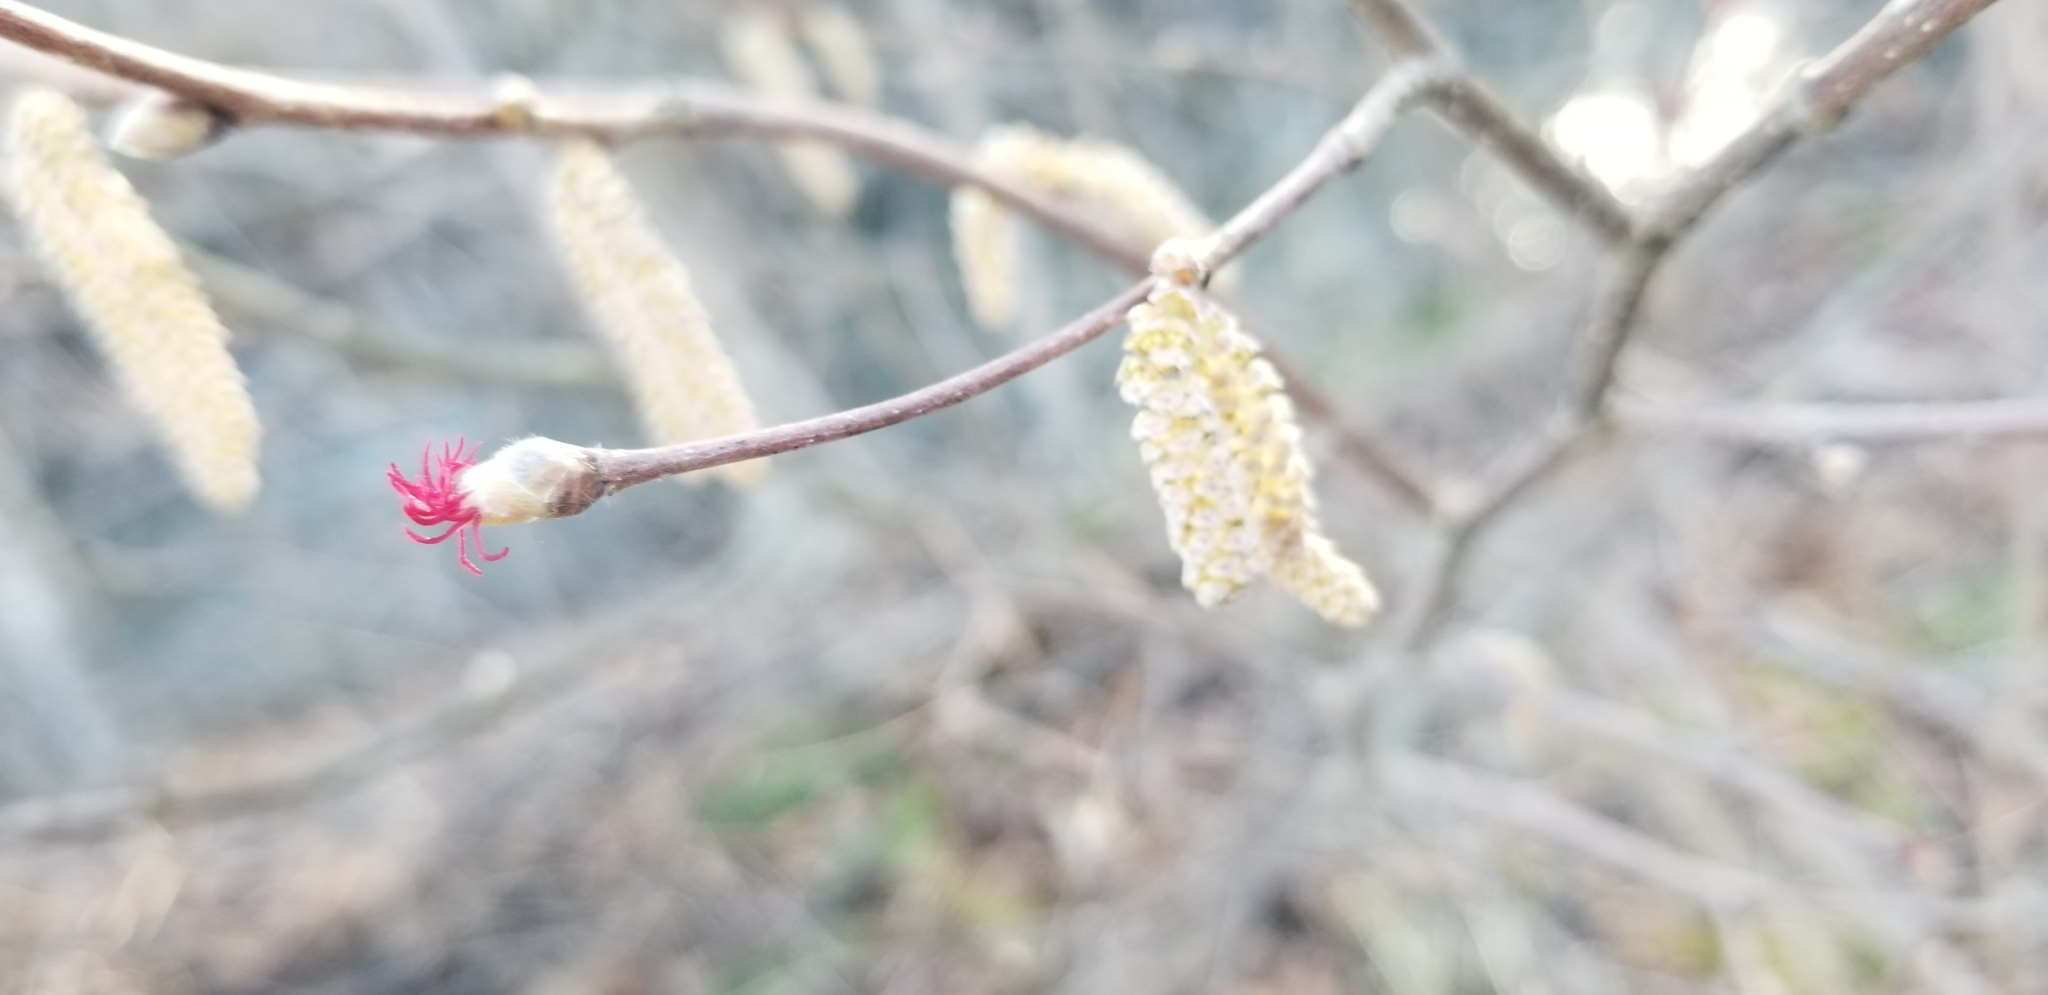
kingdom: Plantae
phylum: Tracheophyta
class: Magnoliopsida
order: Fagales
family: Betulaceae
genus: Corylus
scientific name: Corylus cornuta
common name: Beaked hazel
